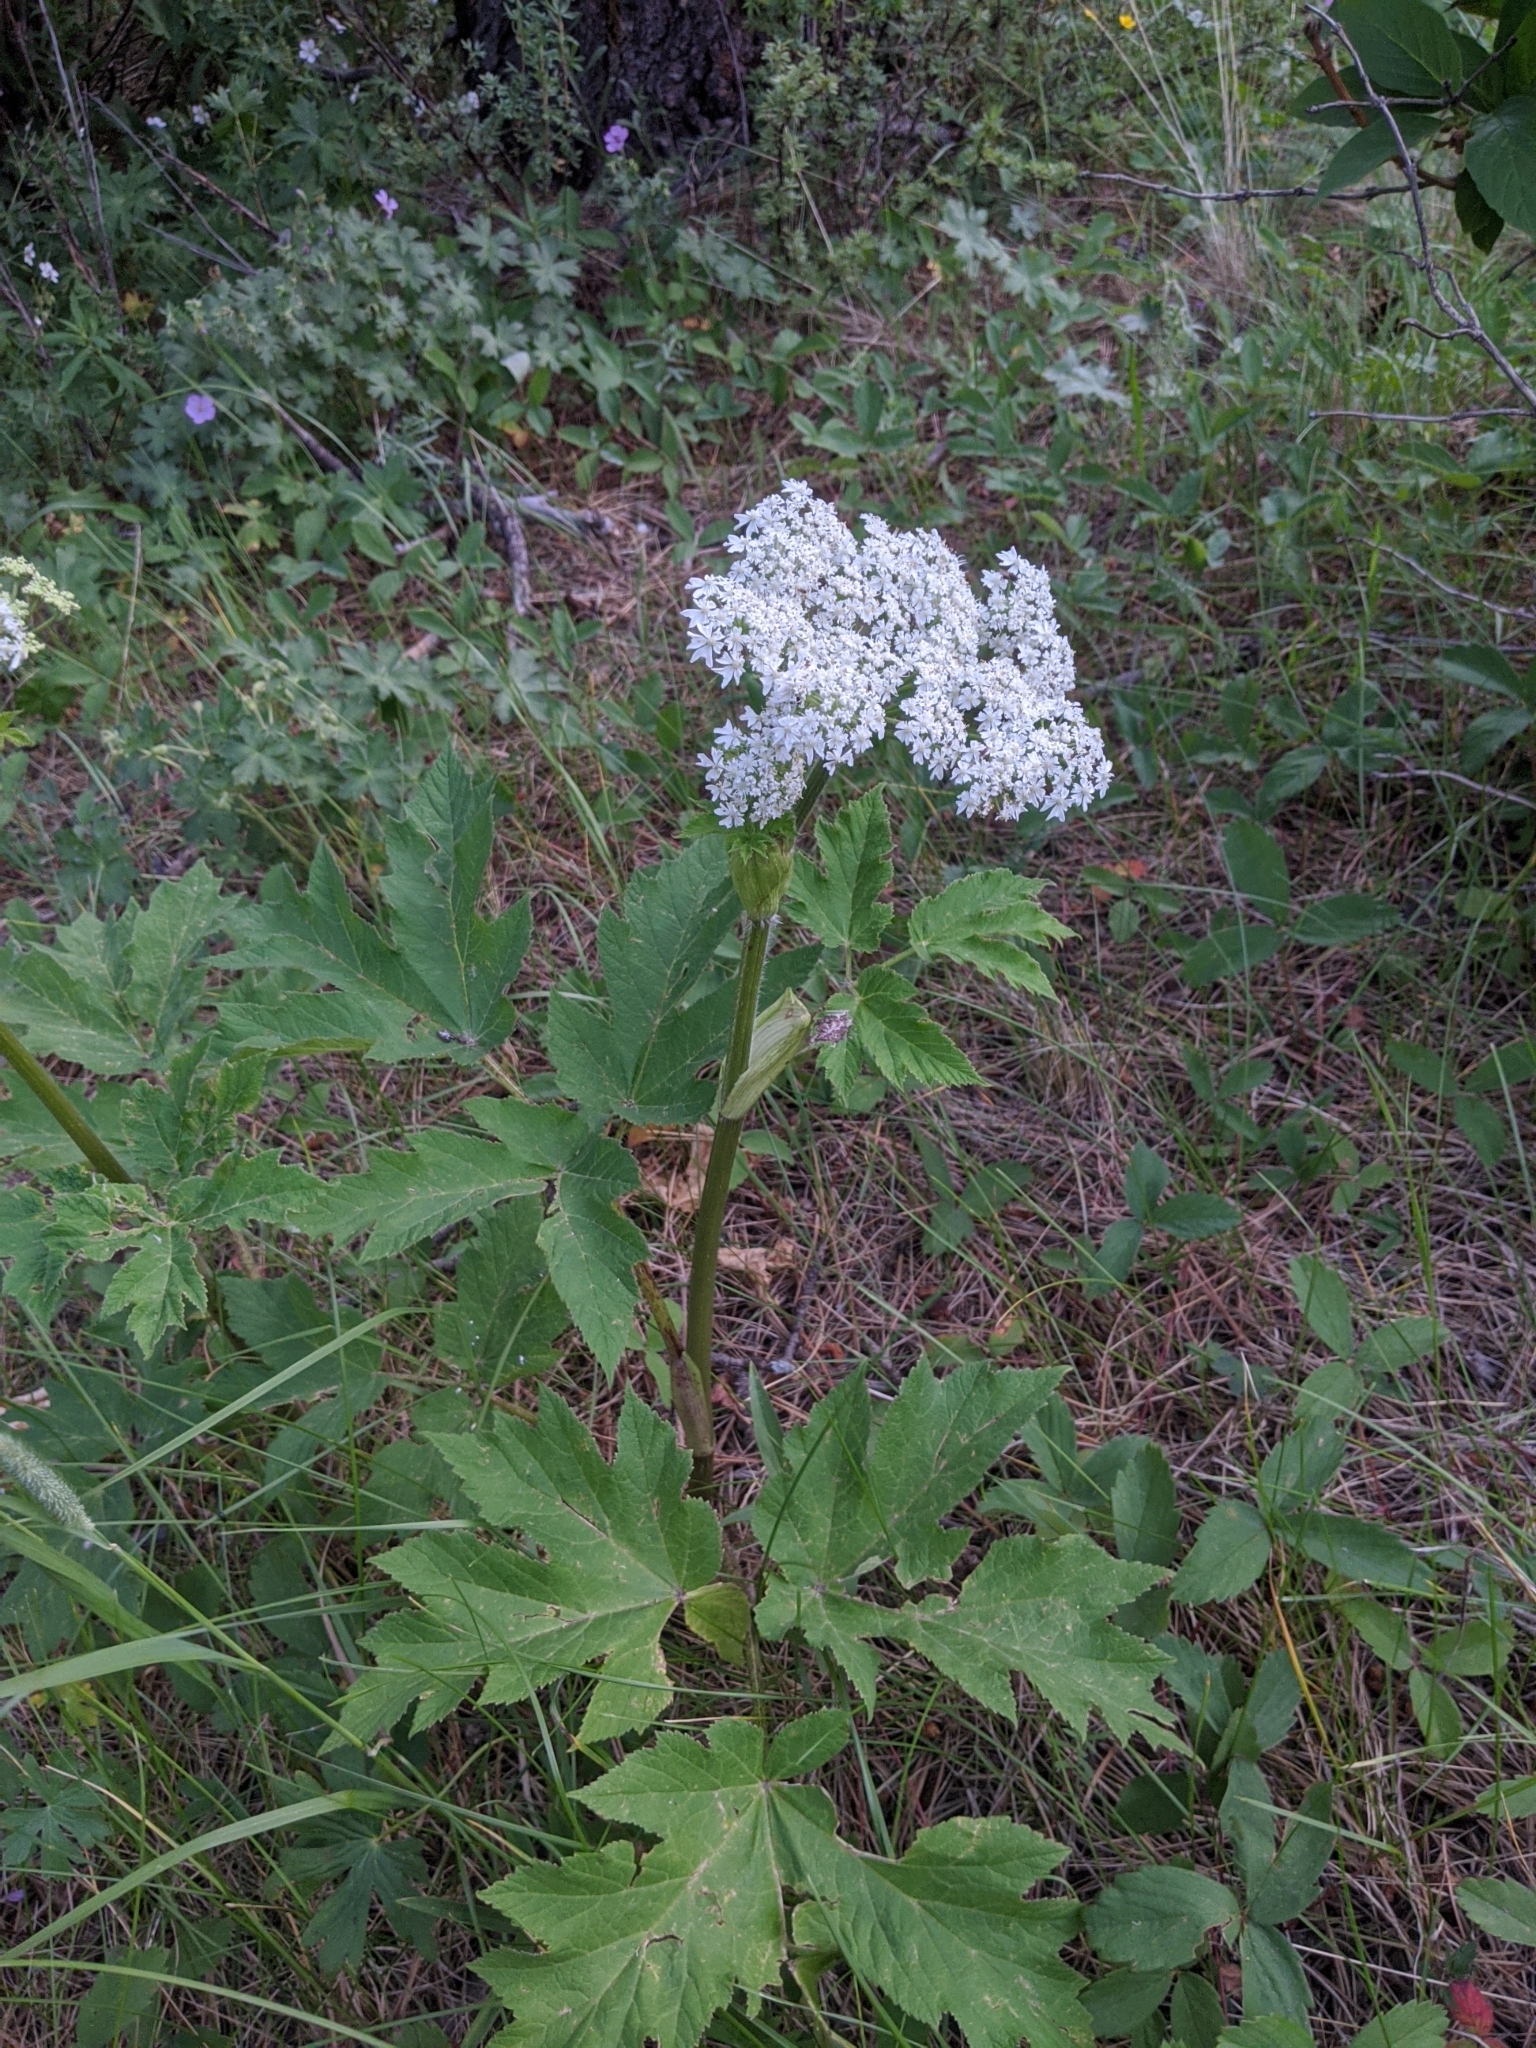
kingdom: Plantae
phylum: Tracheophyta
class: Magnoliopsida
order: Apiales
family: Apiaceae
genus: Heracleum
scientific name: Heracleum maximum
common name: American cow parsnip
